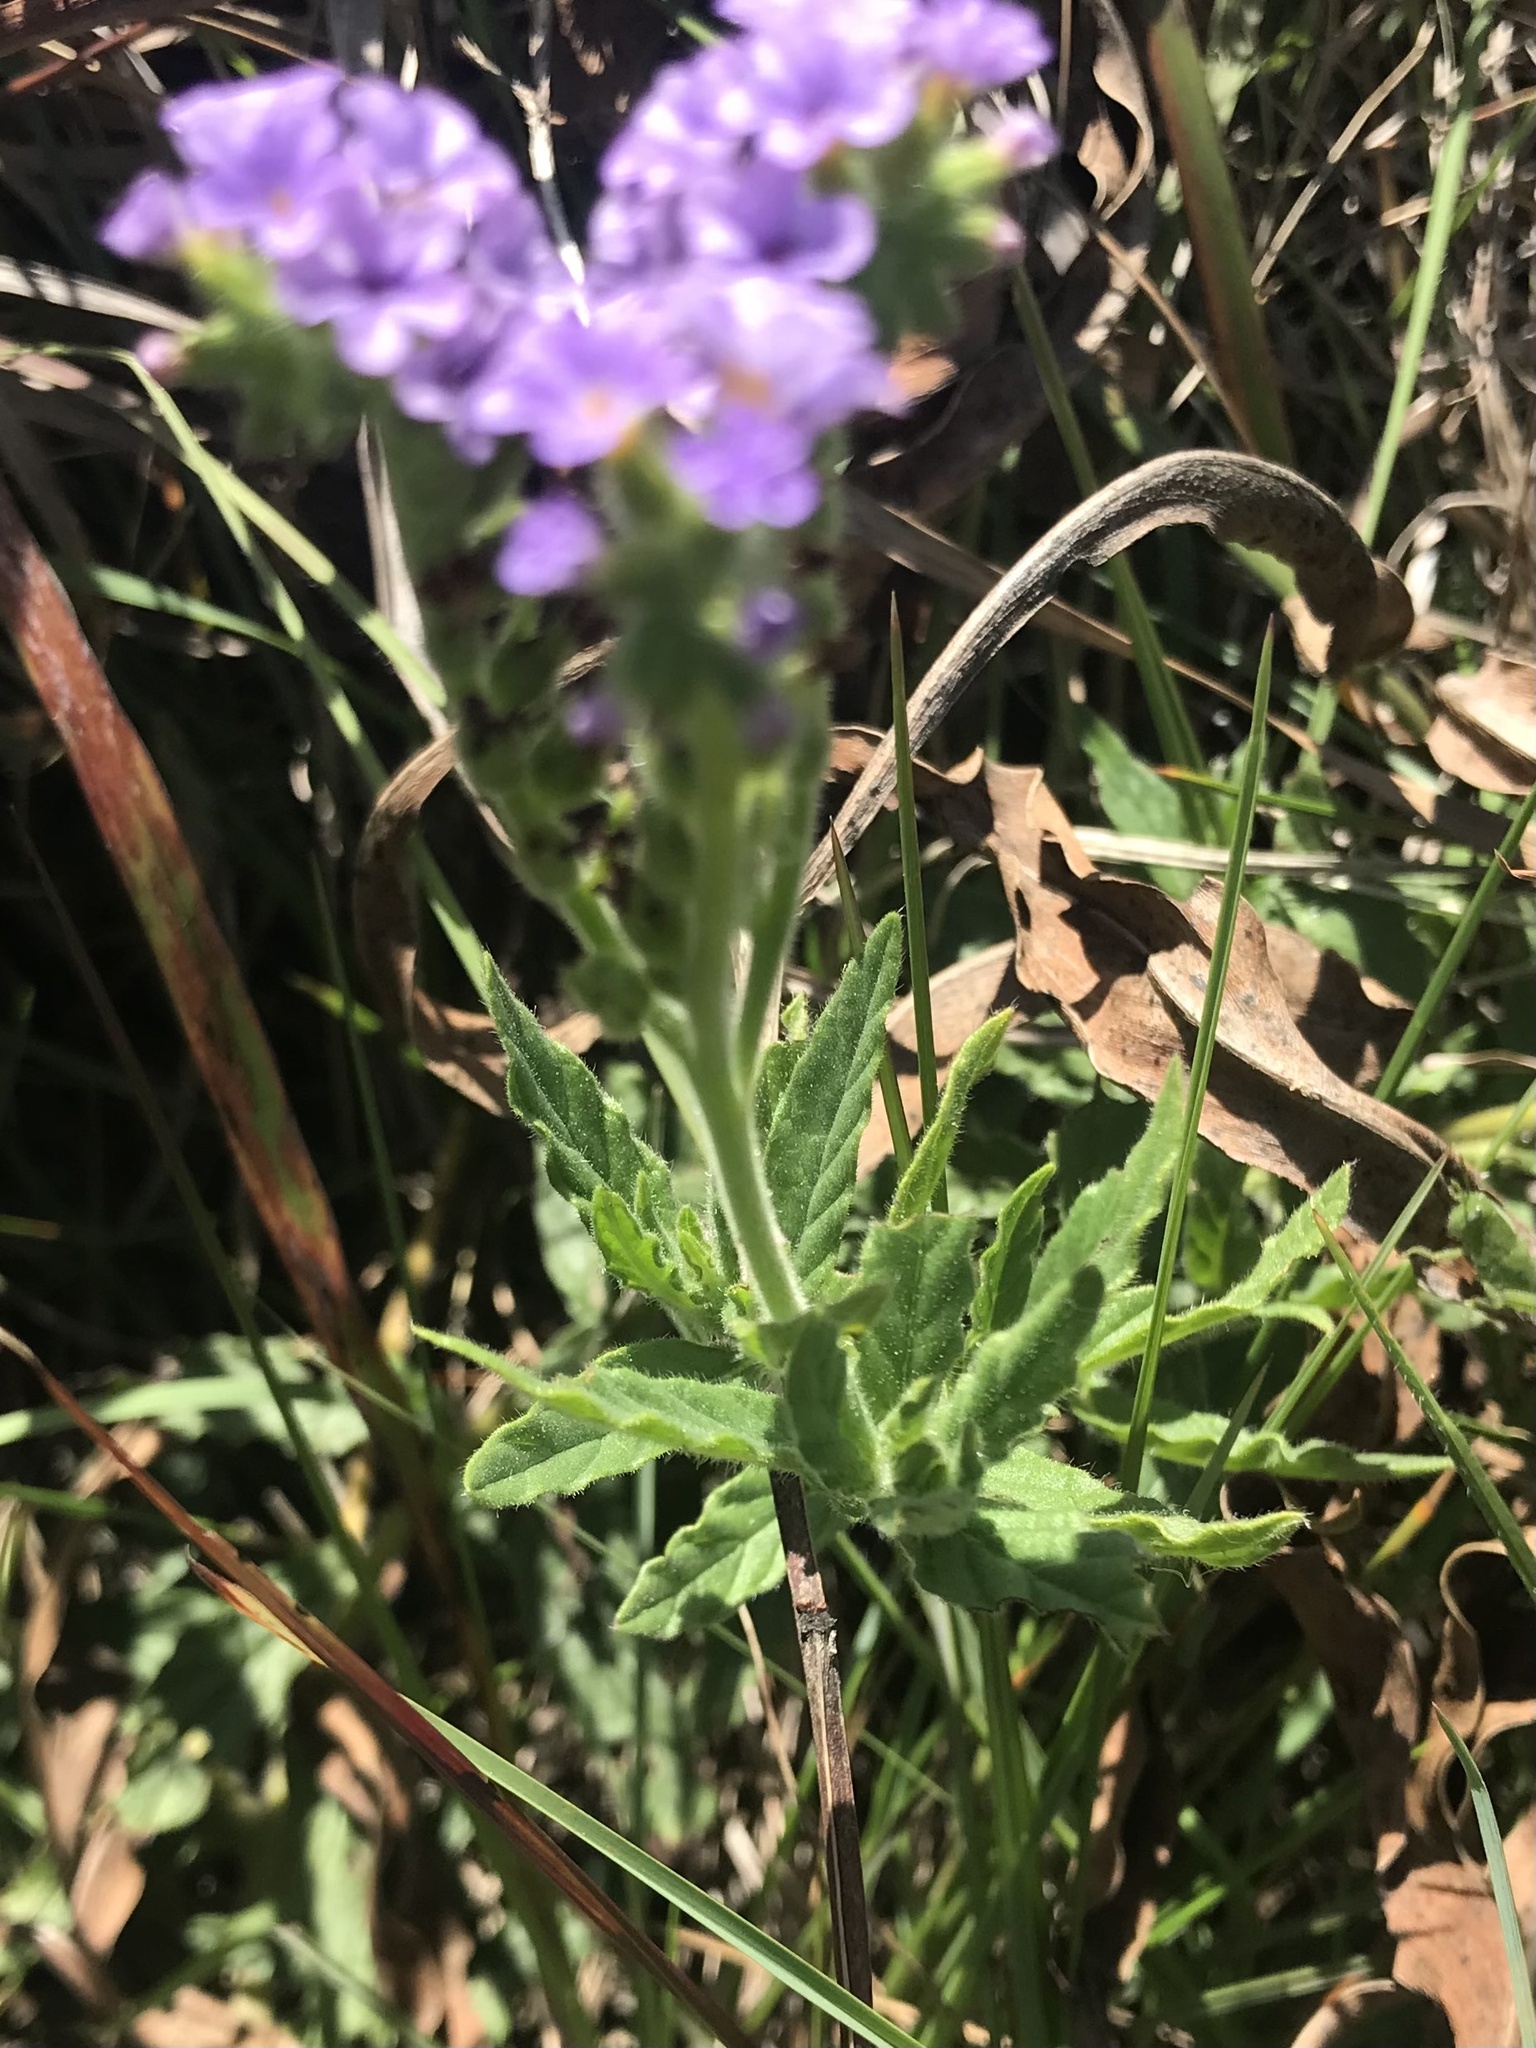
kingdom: Plantae
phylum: Tracheophyta
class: Magnoliopsida
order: Boraginales
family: Heliotropiaceae
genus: Heliotropium
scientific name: Heliotropium amplexicaule
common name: Clasping heliotrope
